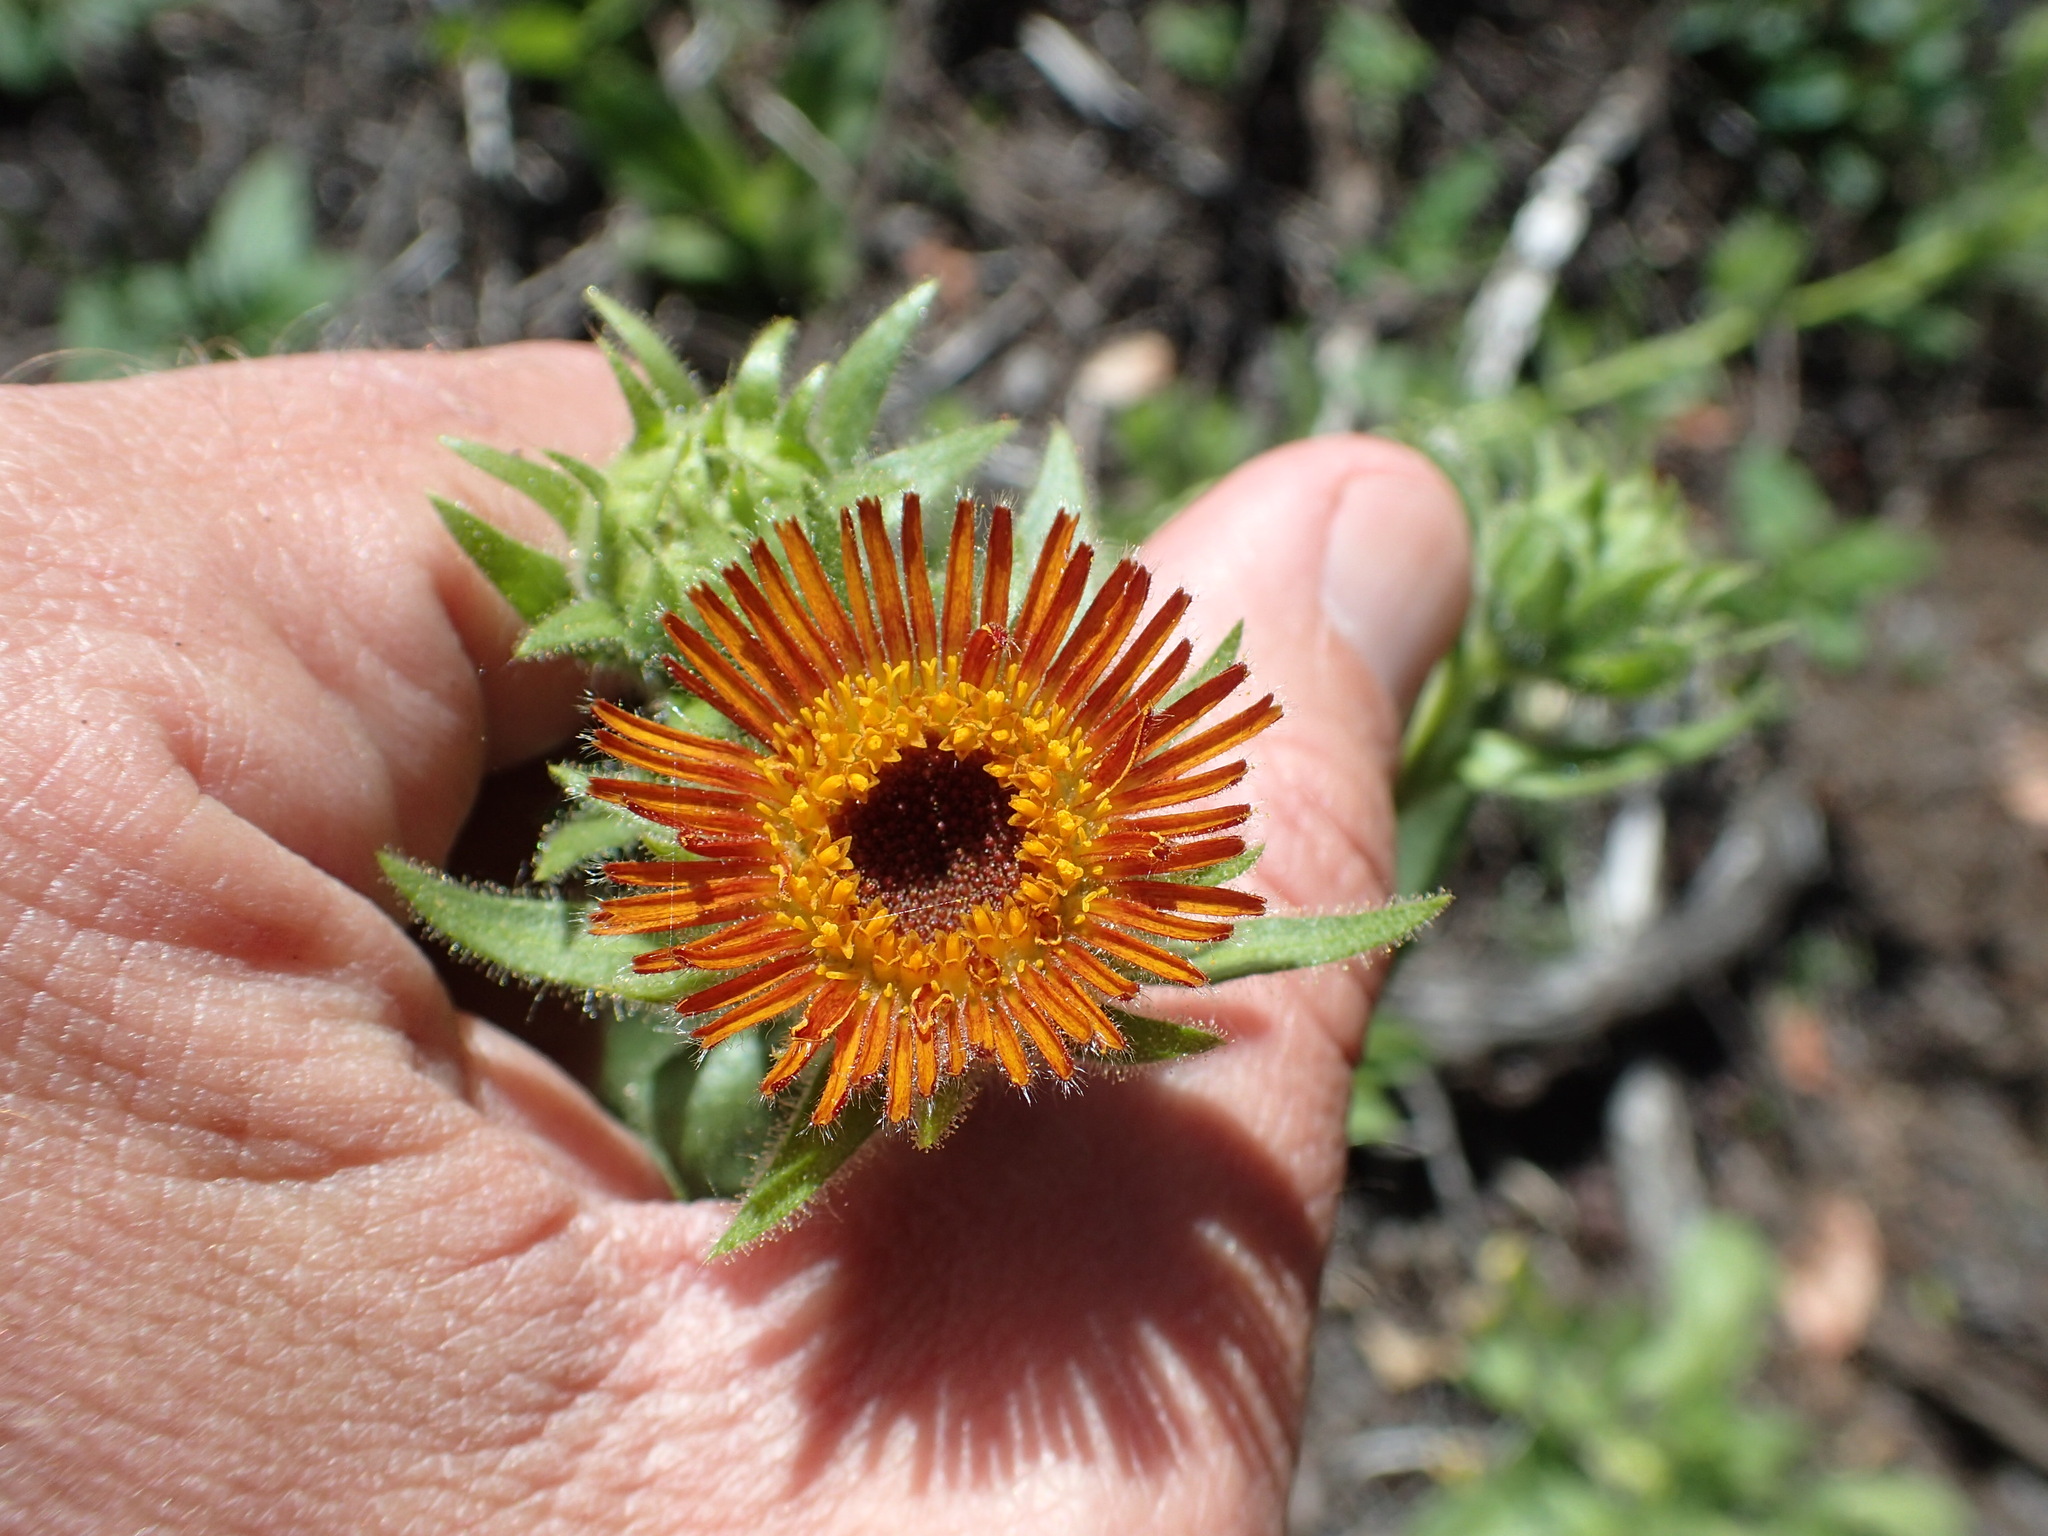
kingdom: Plantae
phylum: Tracheophyta
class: Magnoliopsida
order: Asterales
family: Asteraceae
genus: Hulsea
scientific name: Hulsea heterochroma
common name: Redray alpinegold
